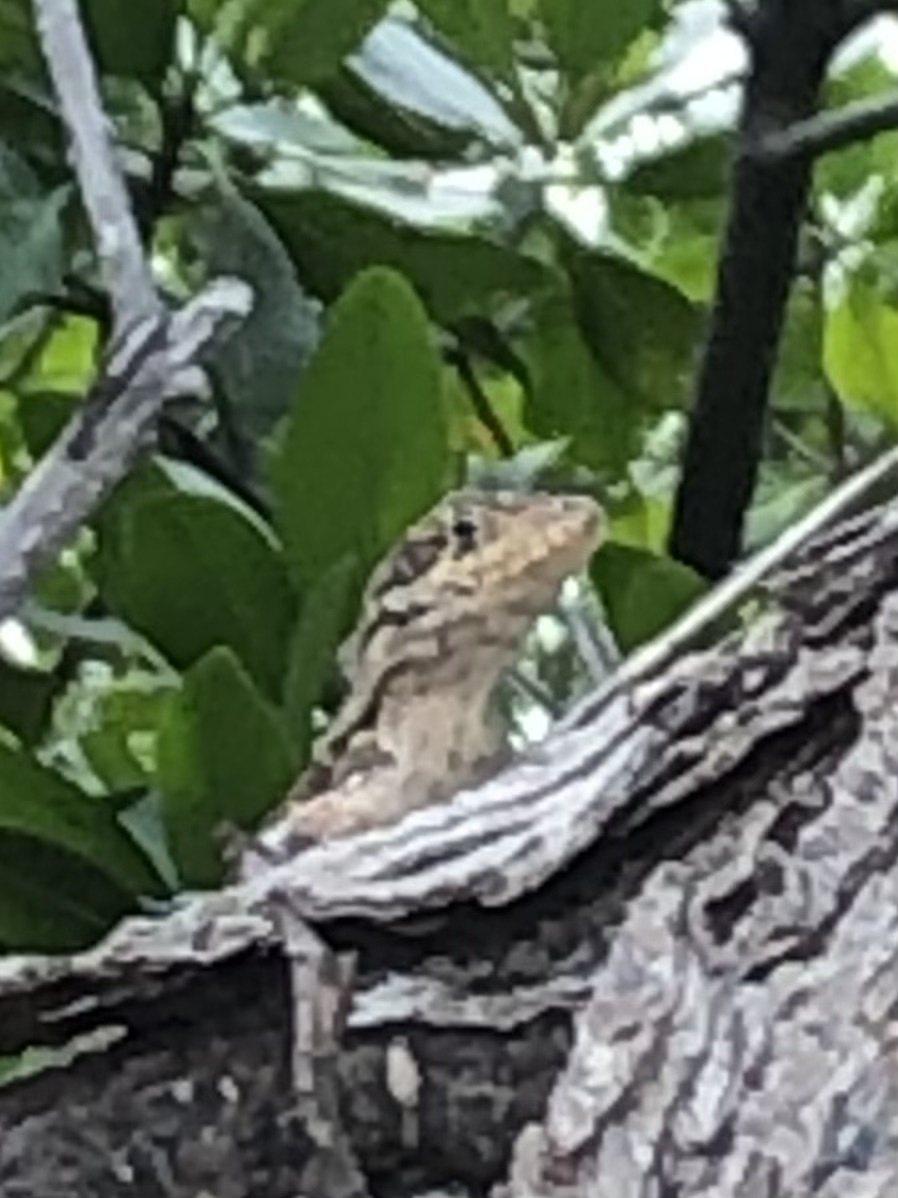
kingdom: Animalia
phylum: Chordata
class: Squamata
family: Leiocephalidae
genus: Leiocephalus
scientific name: Leiocephalus carinatus
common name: Northern curly-tailed lizard
